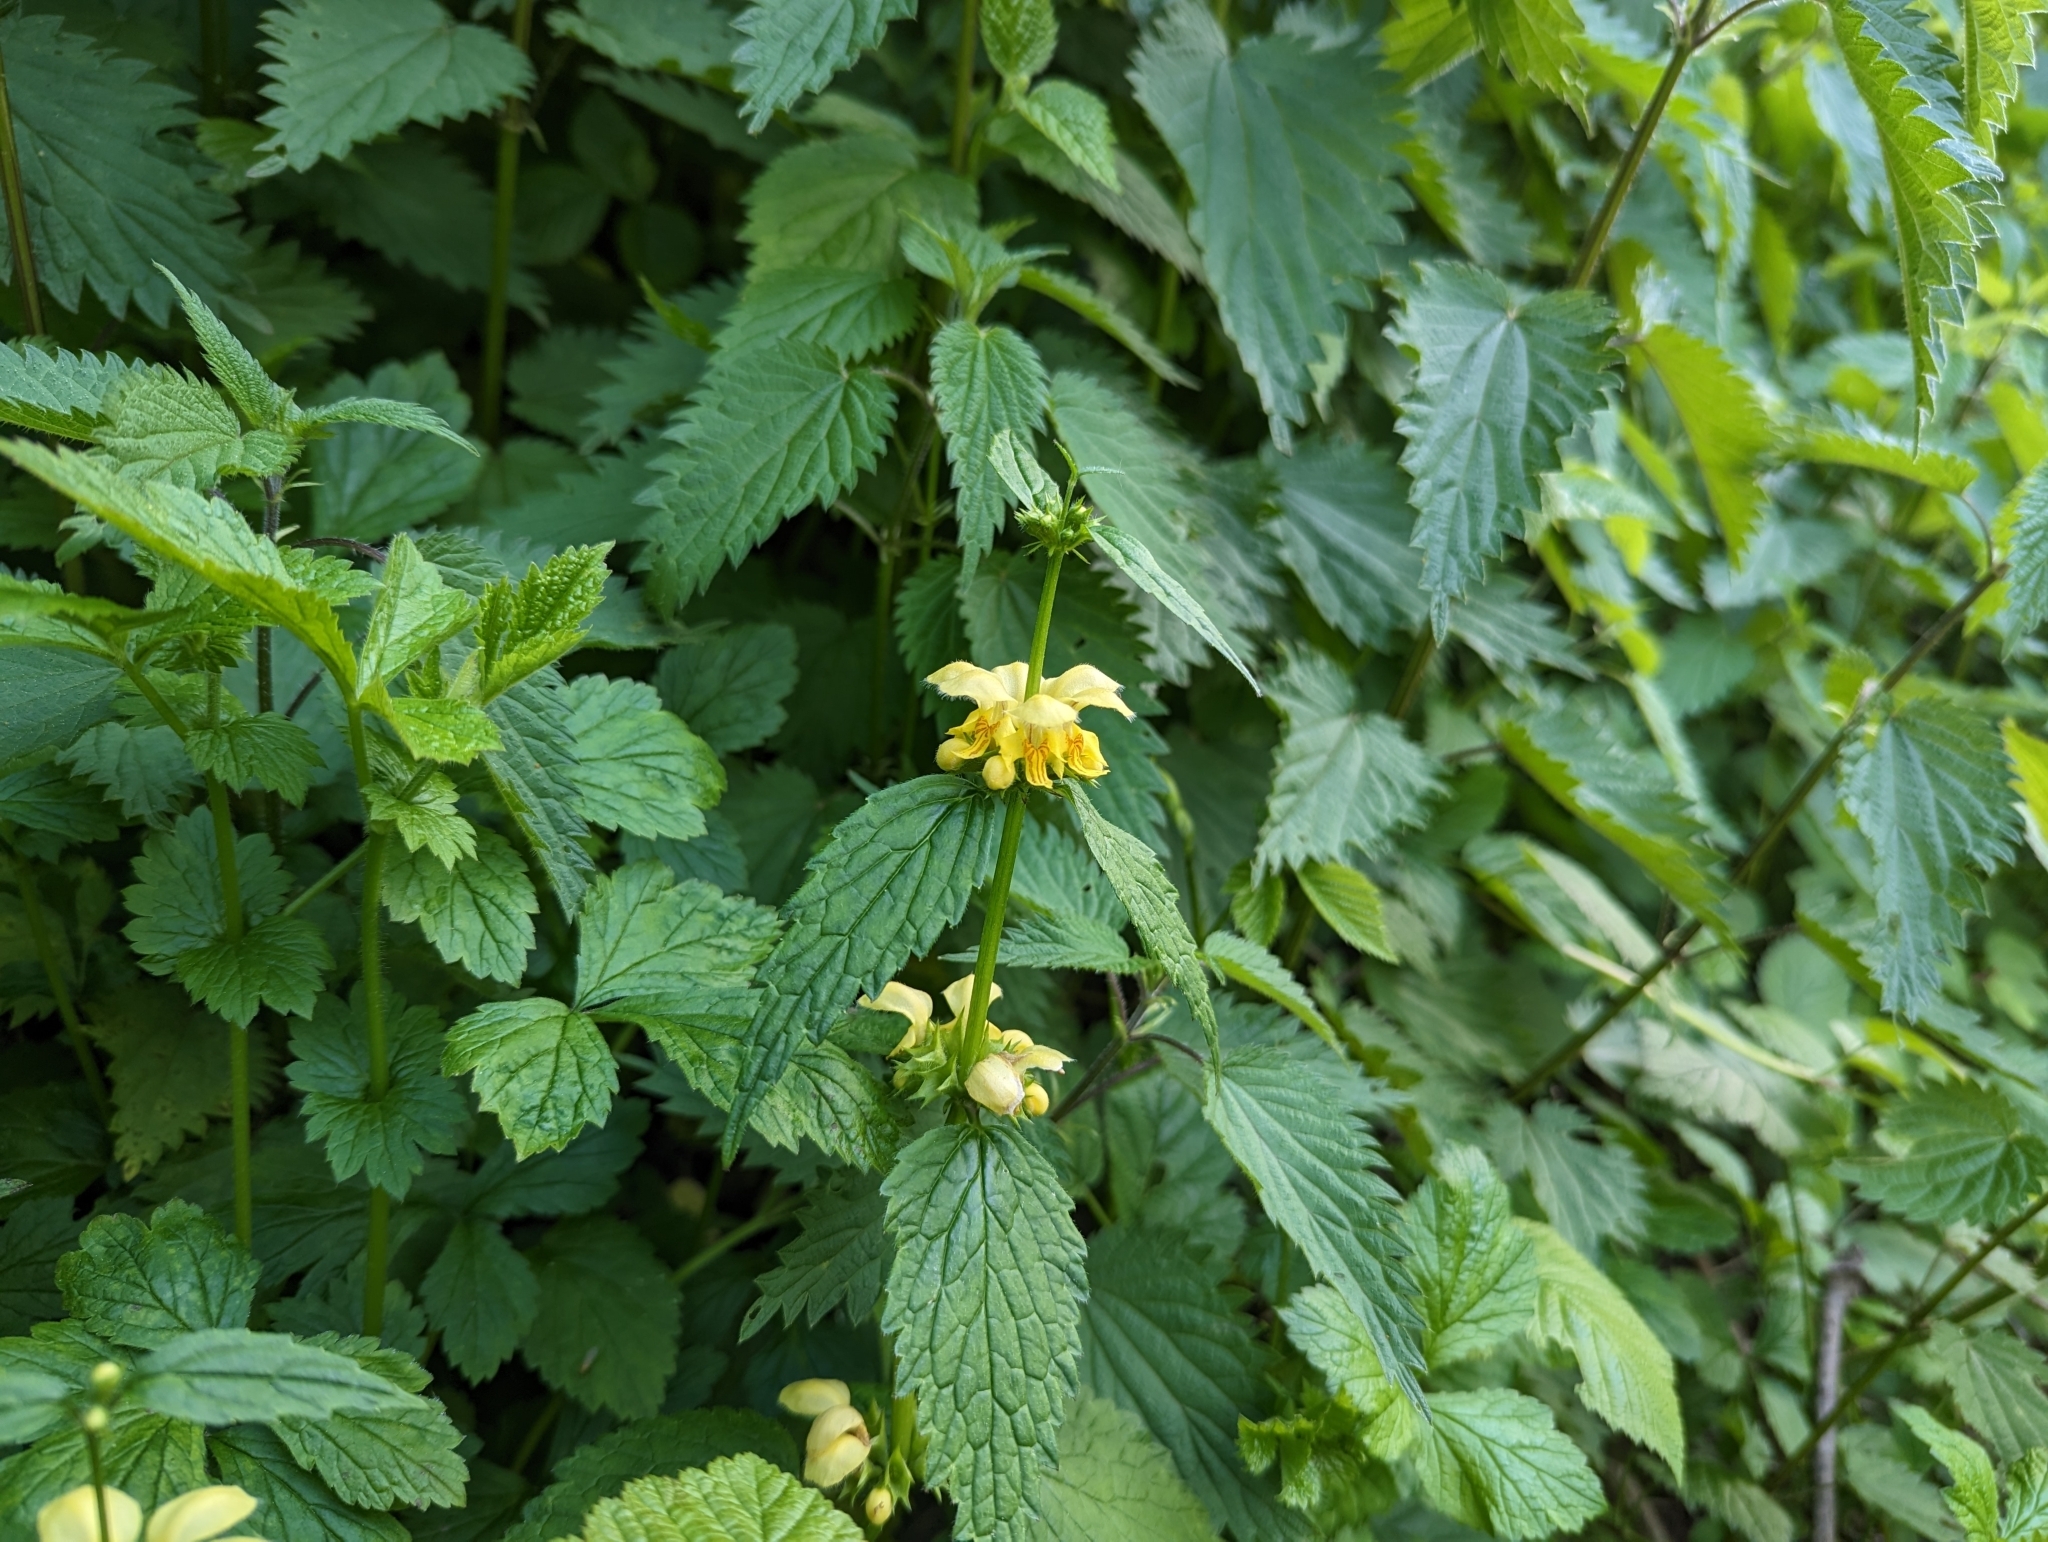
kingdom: Plantae
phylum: Tracheophyta
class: Magnoliopsida
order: Lamiales
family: Lamiaceae
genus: Lamium
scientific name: Lamium galeobdolon
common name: Yellow archangel
